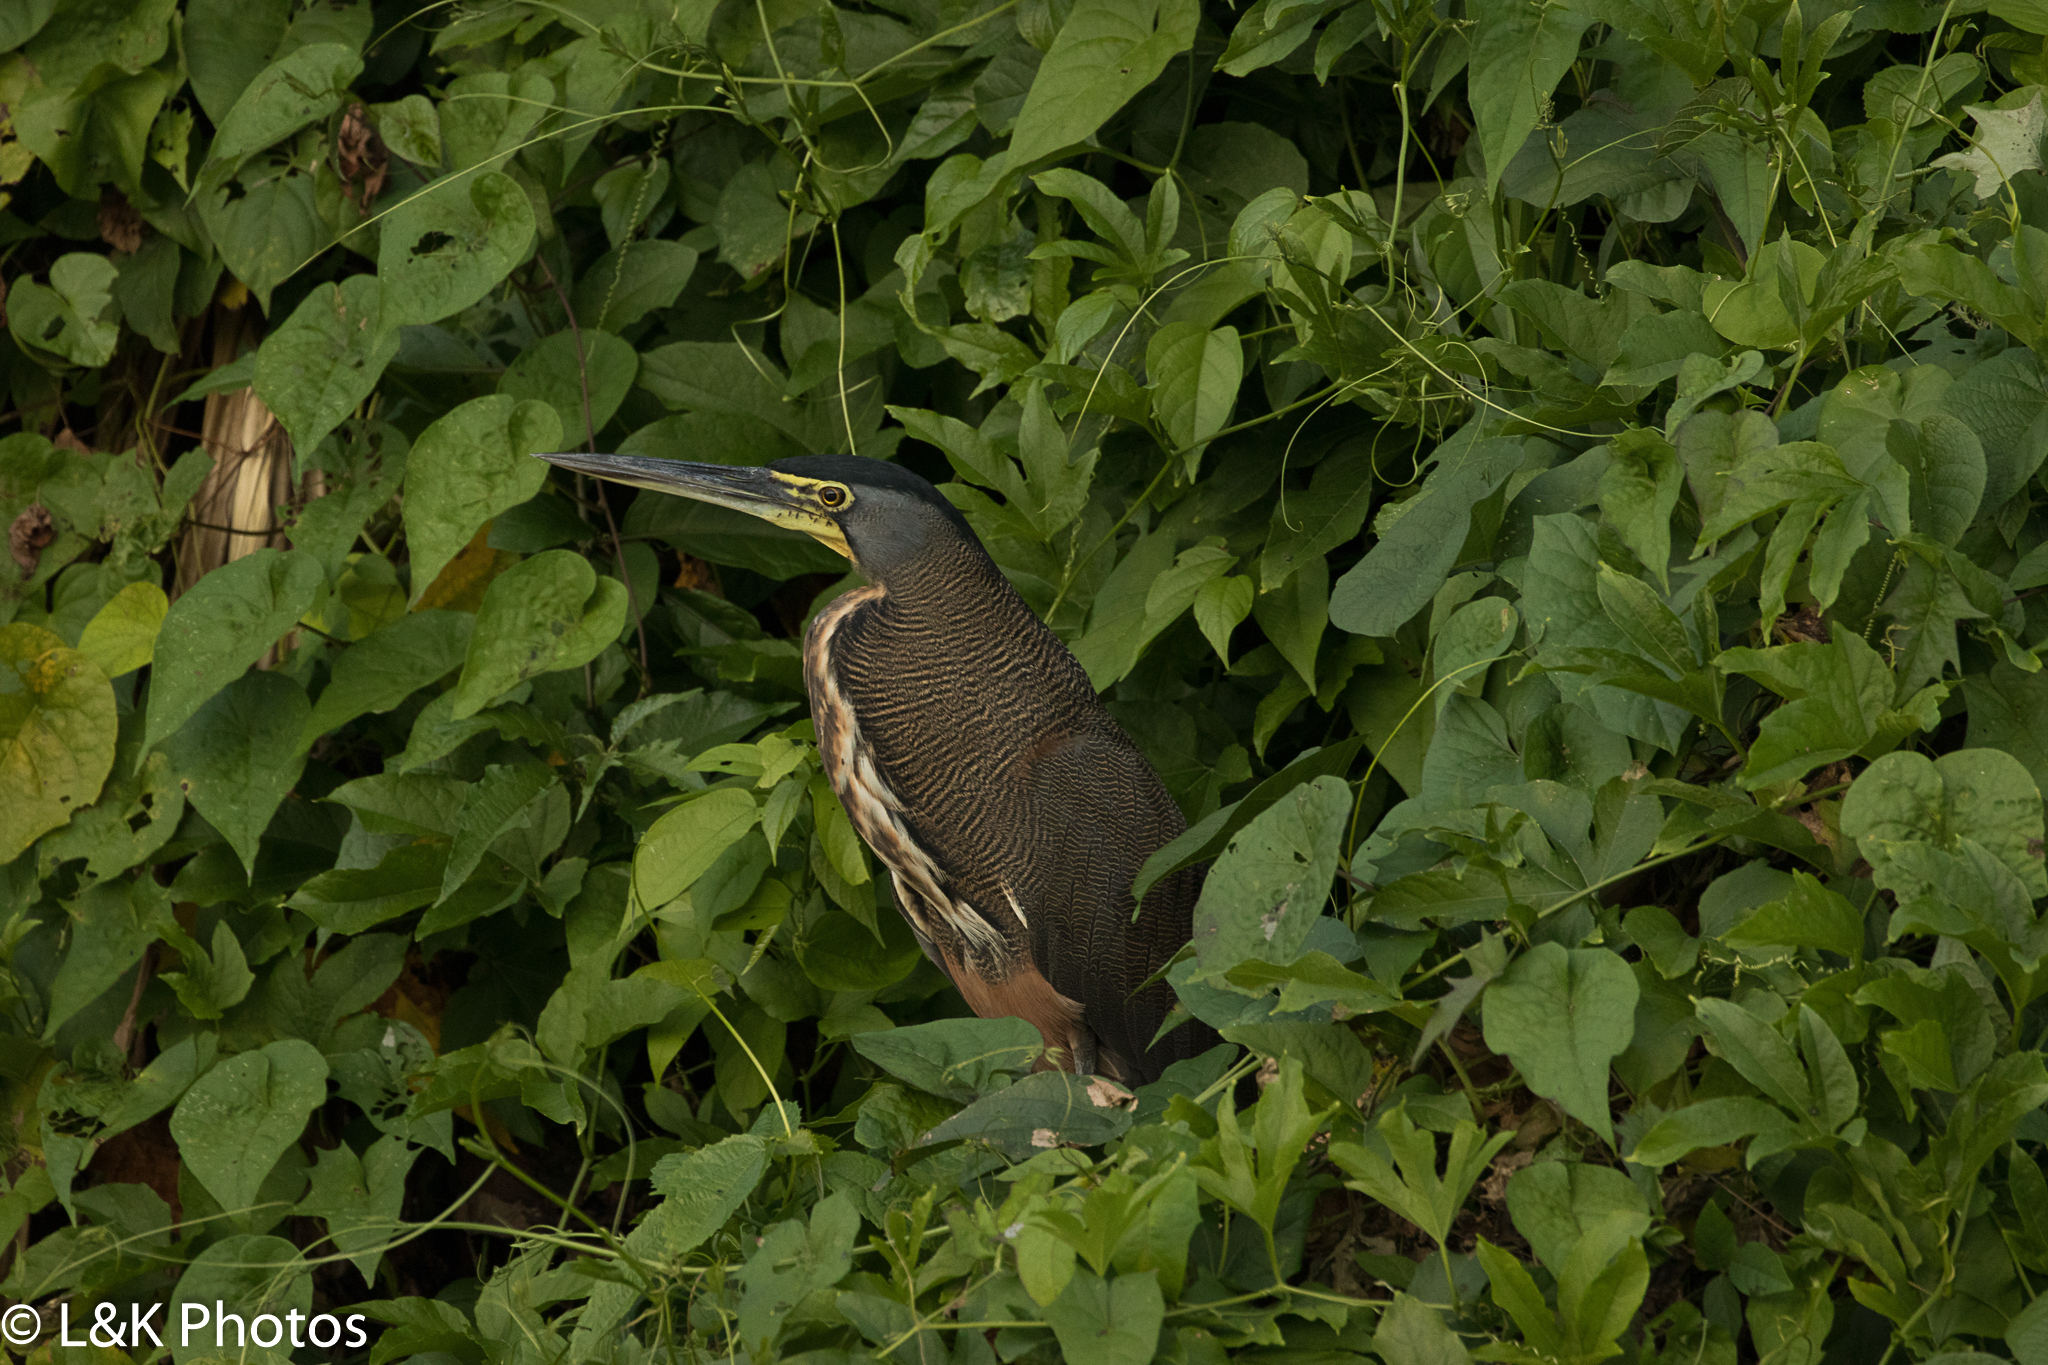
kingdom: Animalia
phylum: Chordata
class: Aves
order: Pelecaniformes
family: Ardeidae
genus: Tigrisoma
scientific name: Tigrisoma mexicanum
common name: Bare-throated tiger-heron
